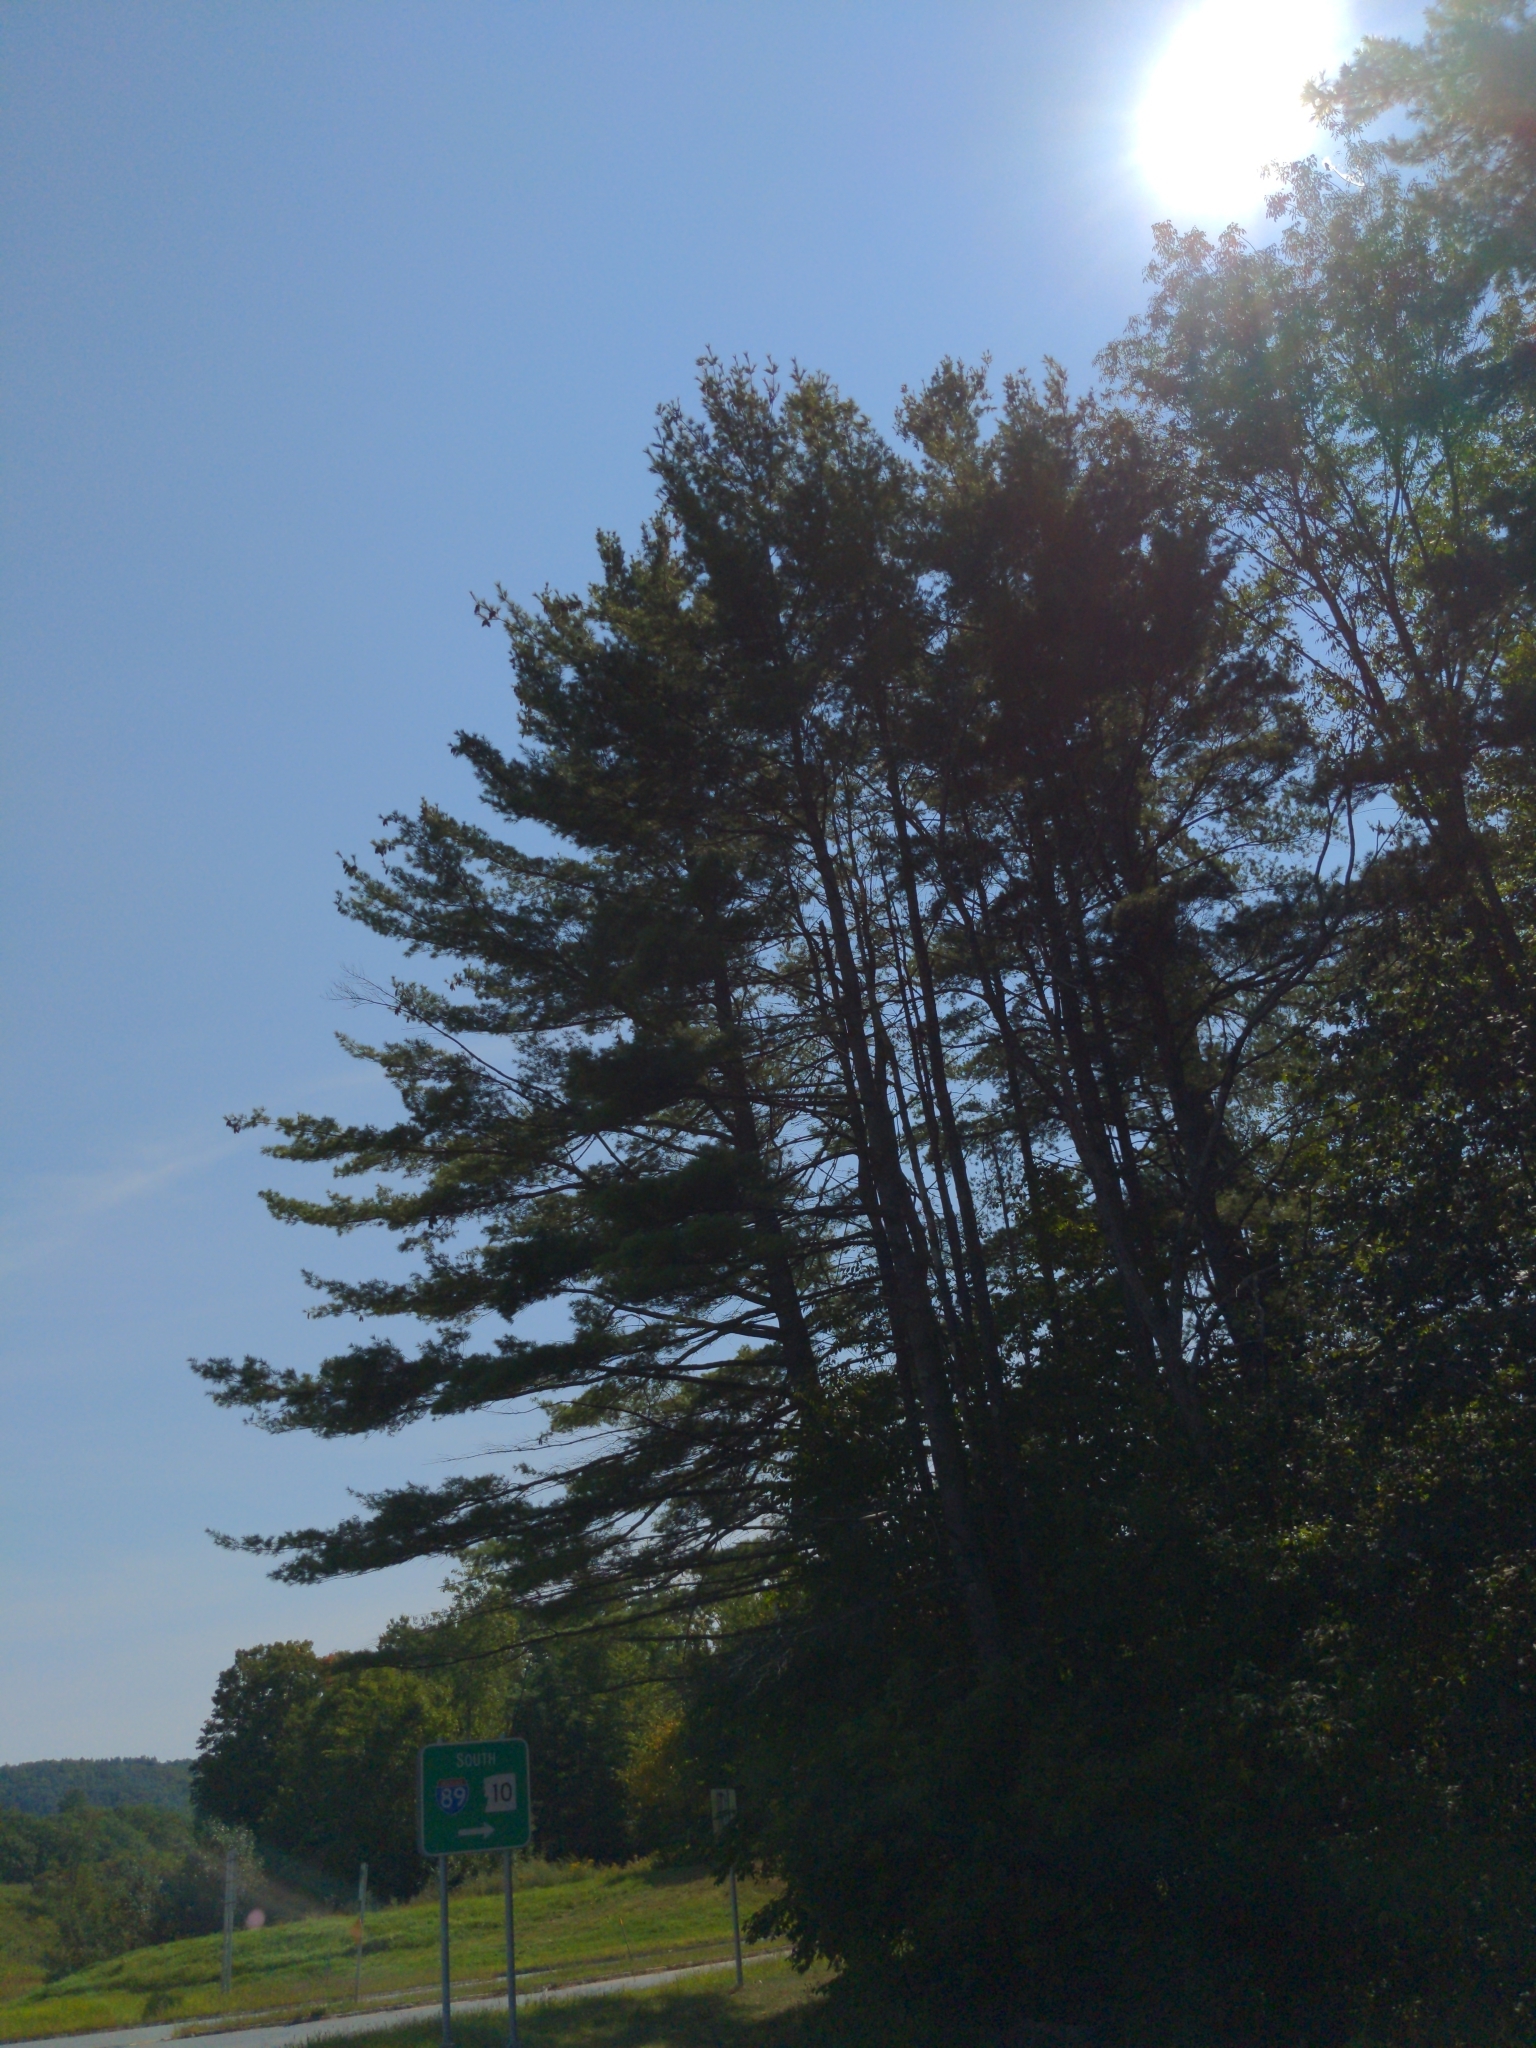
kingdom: Plantae
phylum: Tracheophyta
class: Pinopsida
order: Pinales
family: Pinaceae
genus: Pinus
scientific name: Pinus strobus
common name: Weymouth pine
